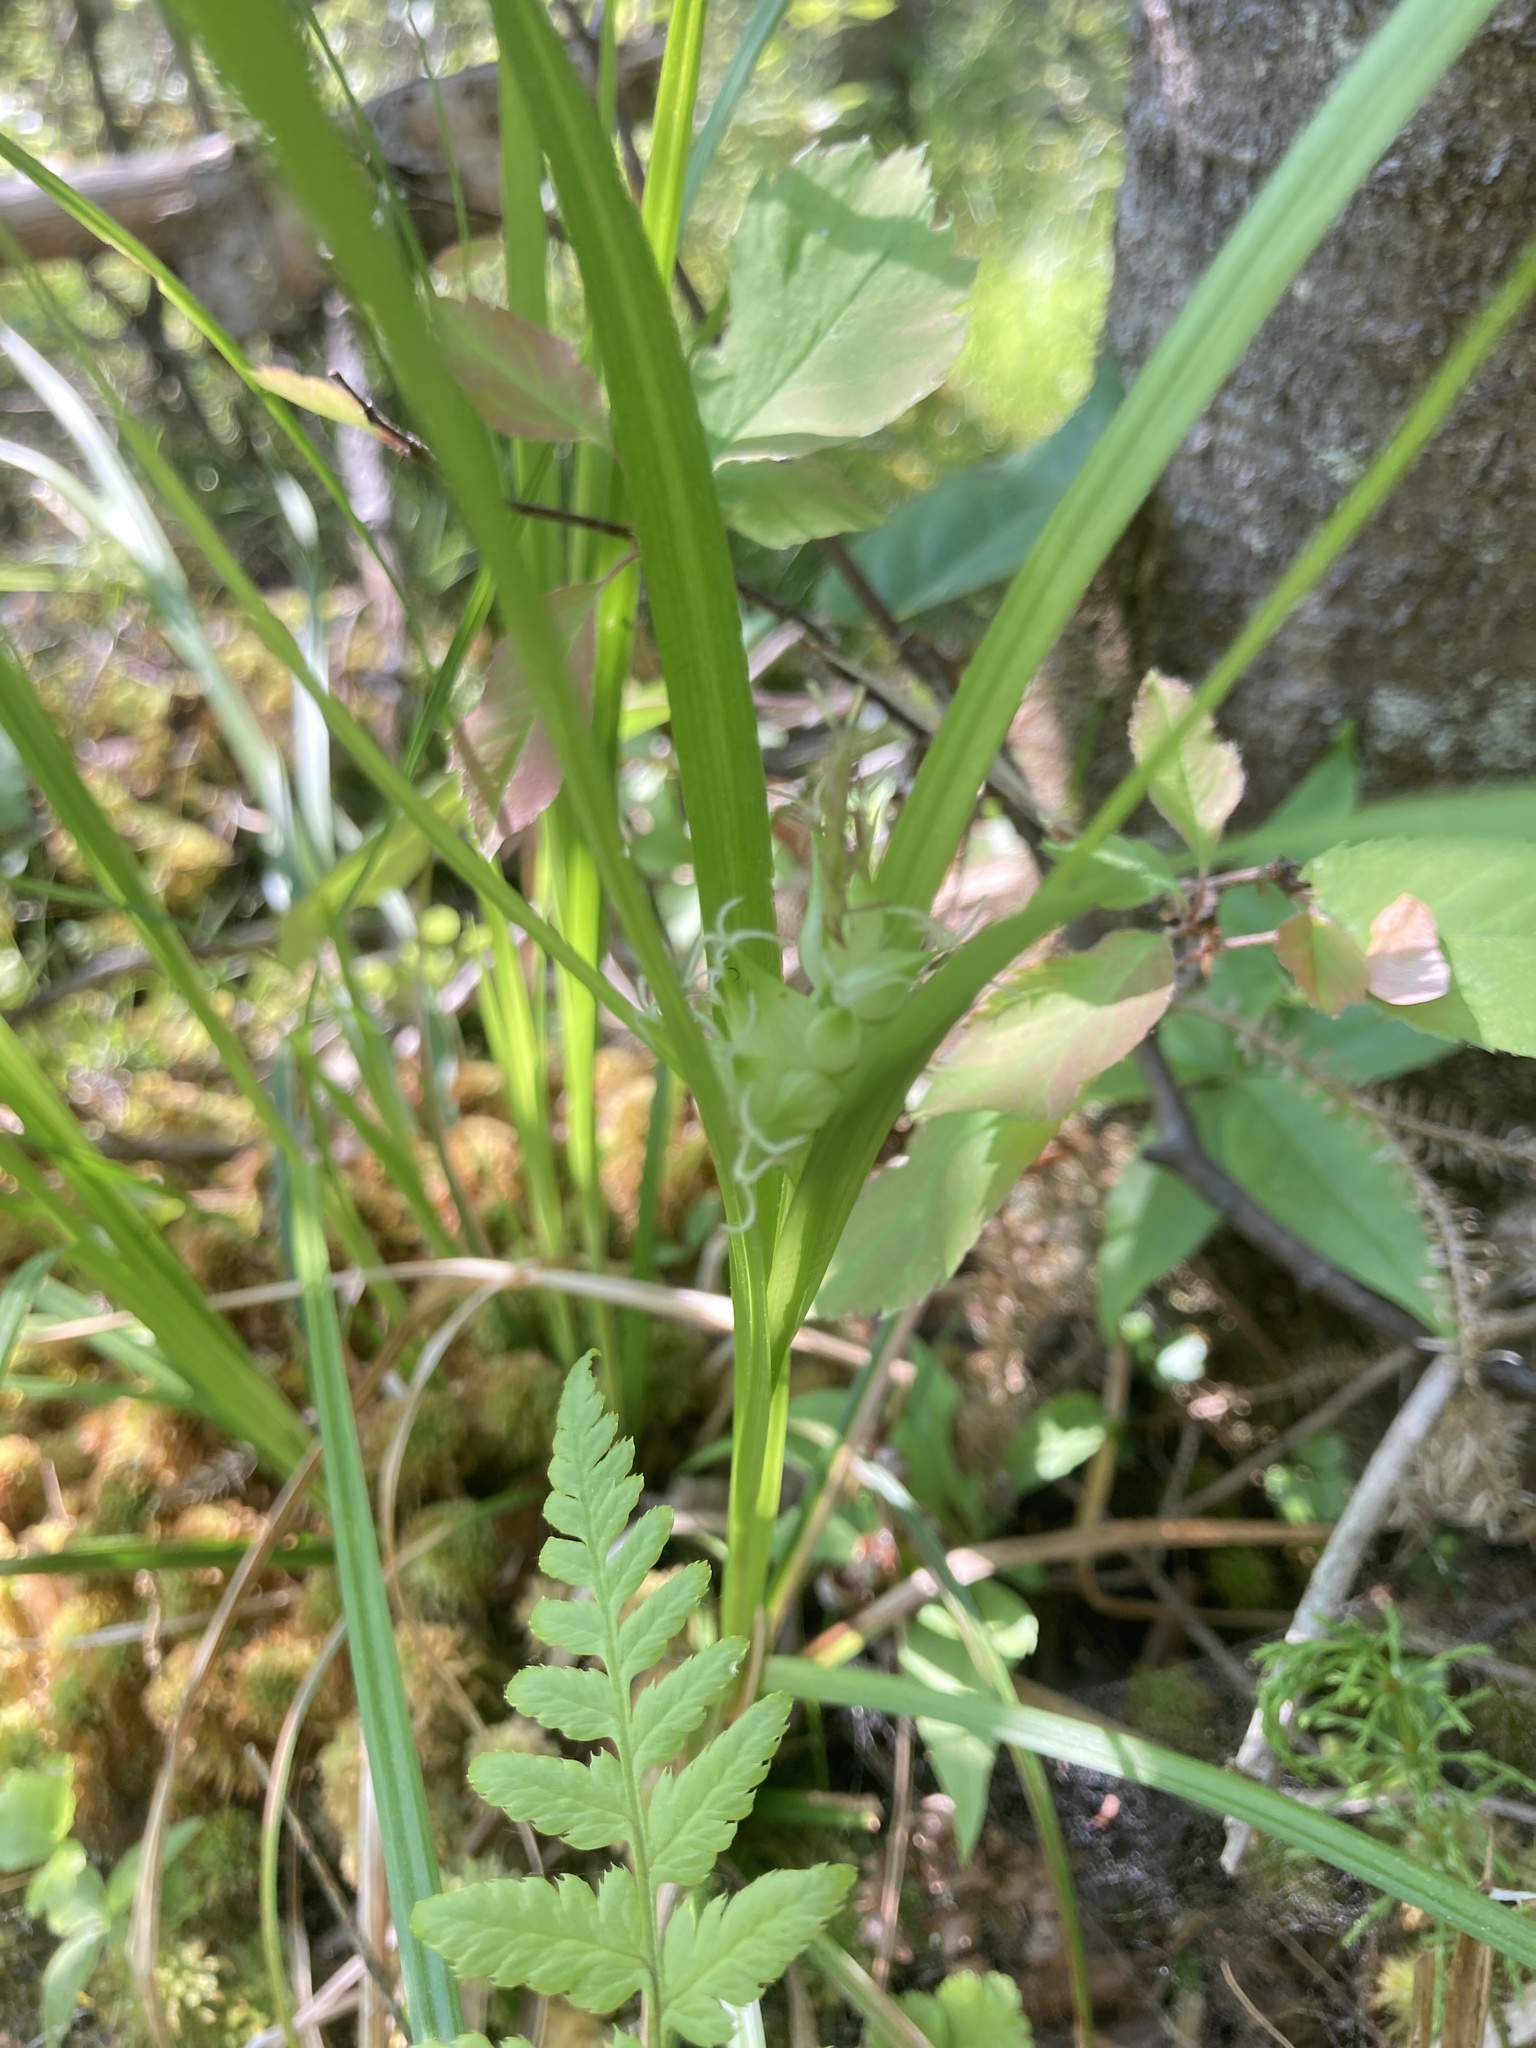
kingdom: Plantae
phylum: Tracheophyta
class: Liliopsida
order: Poales
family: Cyperaceae
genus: Carex
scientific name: Carex intumescens
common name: Greater bladder sedge
